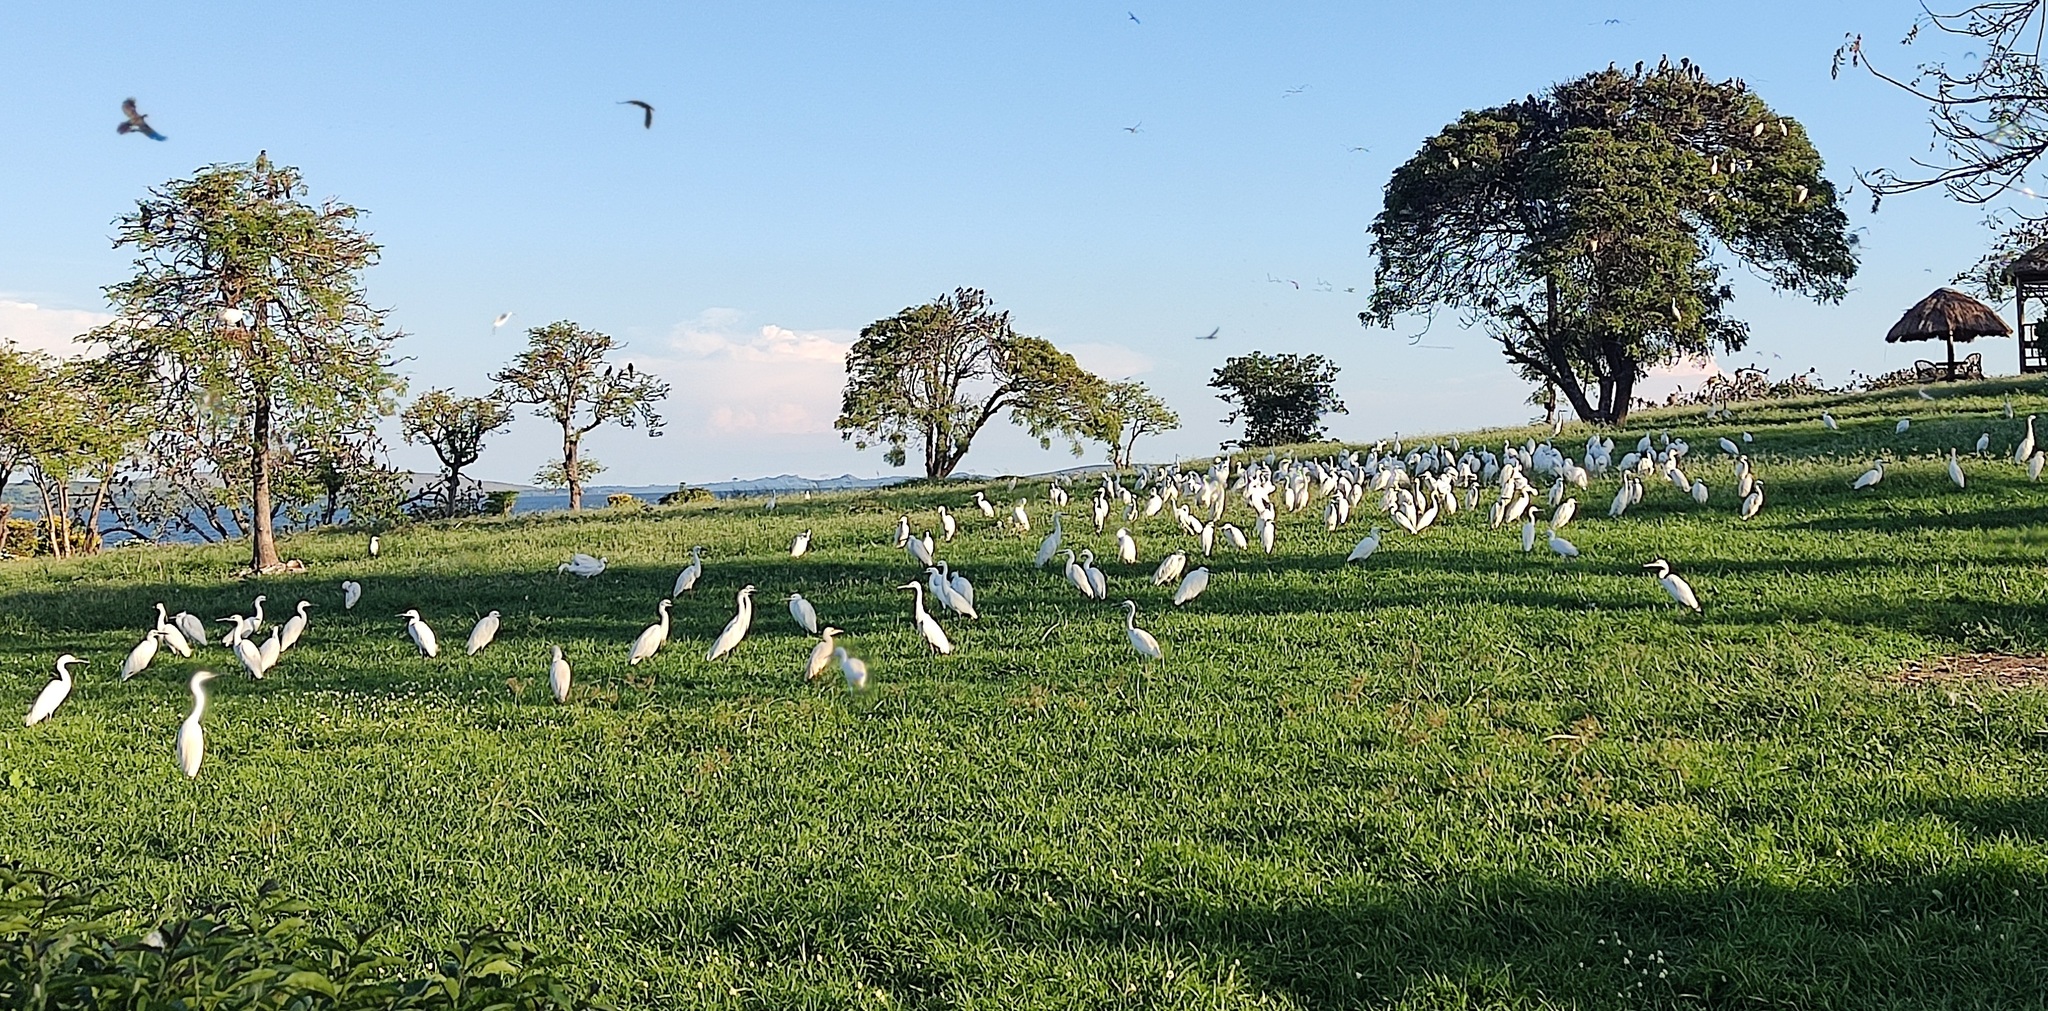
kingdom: Animalia
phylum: Chordata
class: Aves
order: Pelecaniformes
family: Ardeidae
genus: Egretta
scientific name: Egretta garzetta
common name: Little egret
